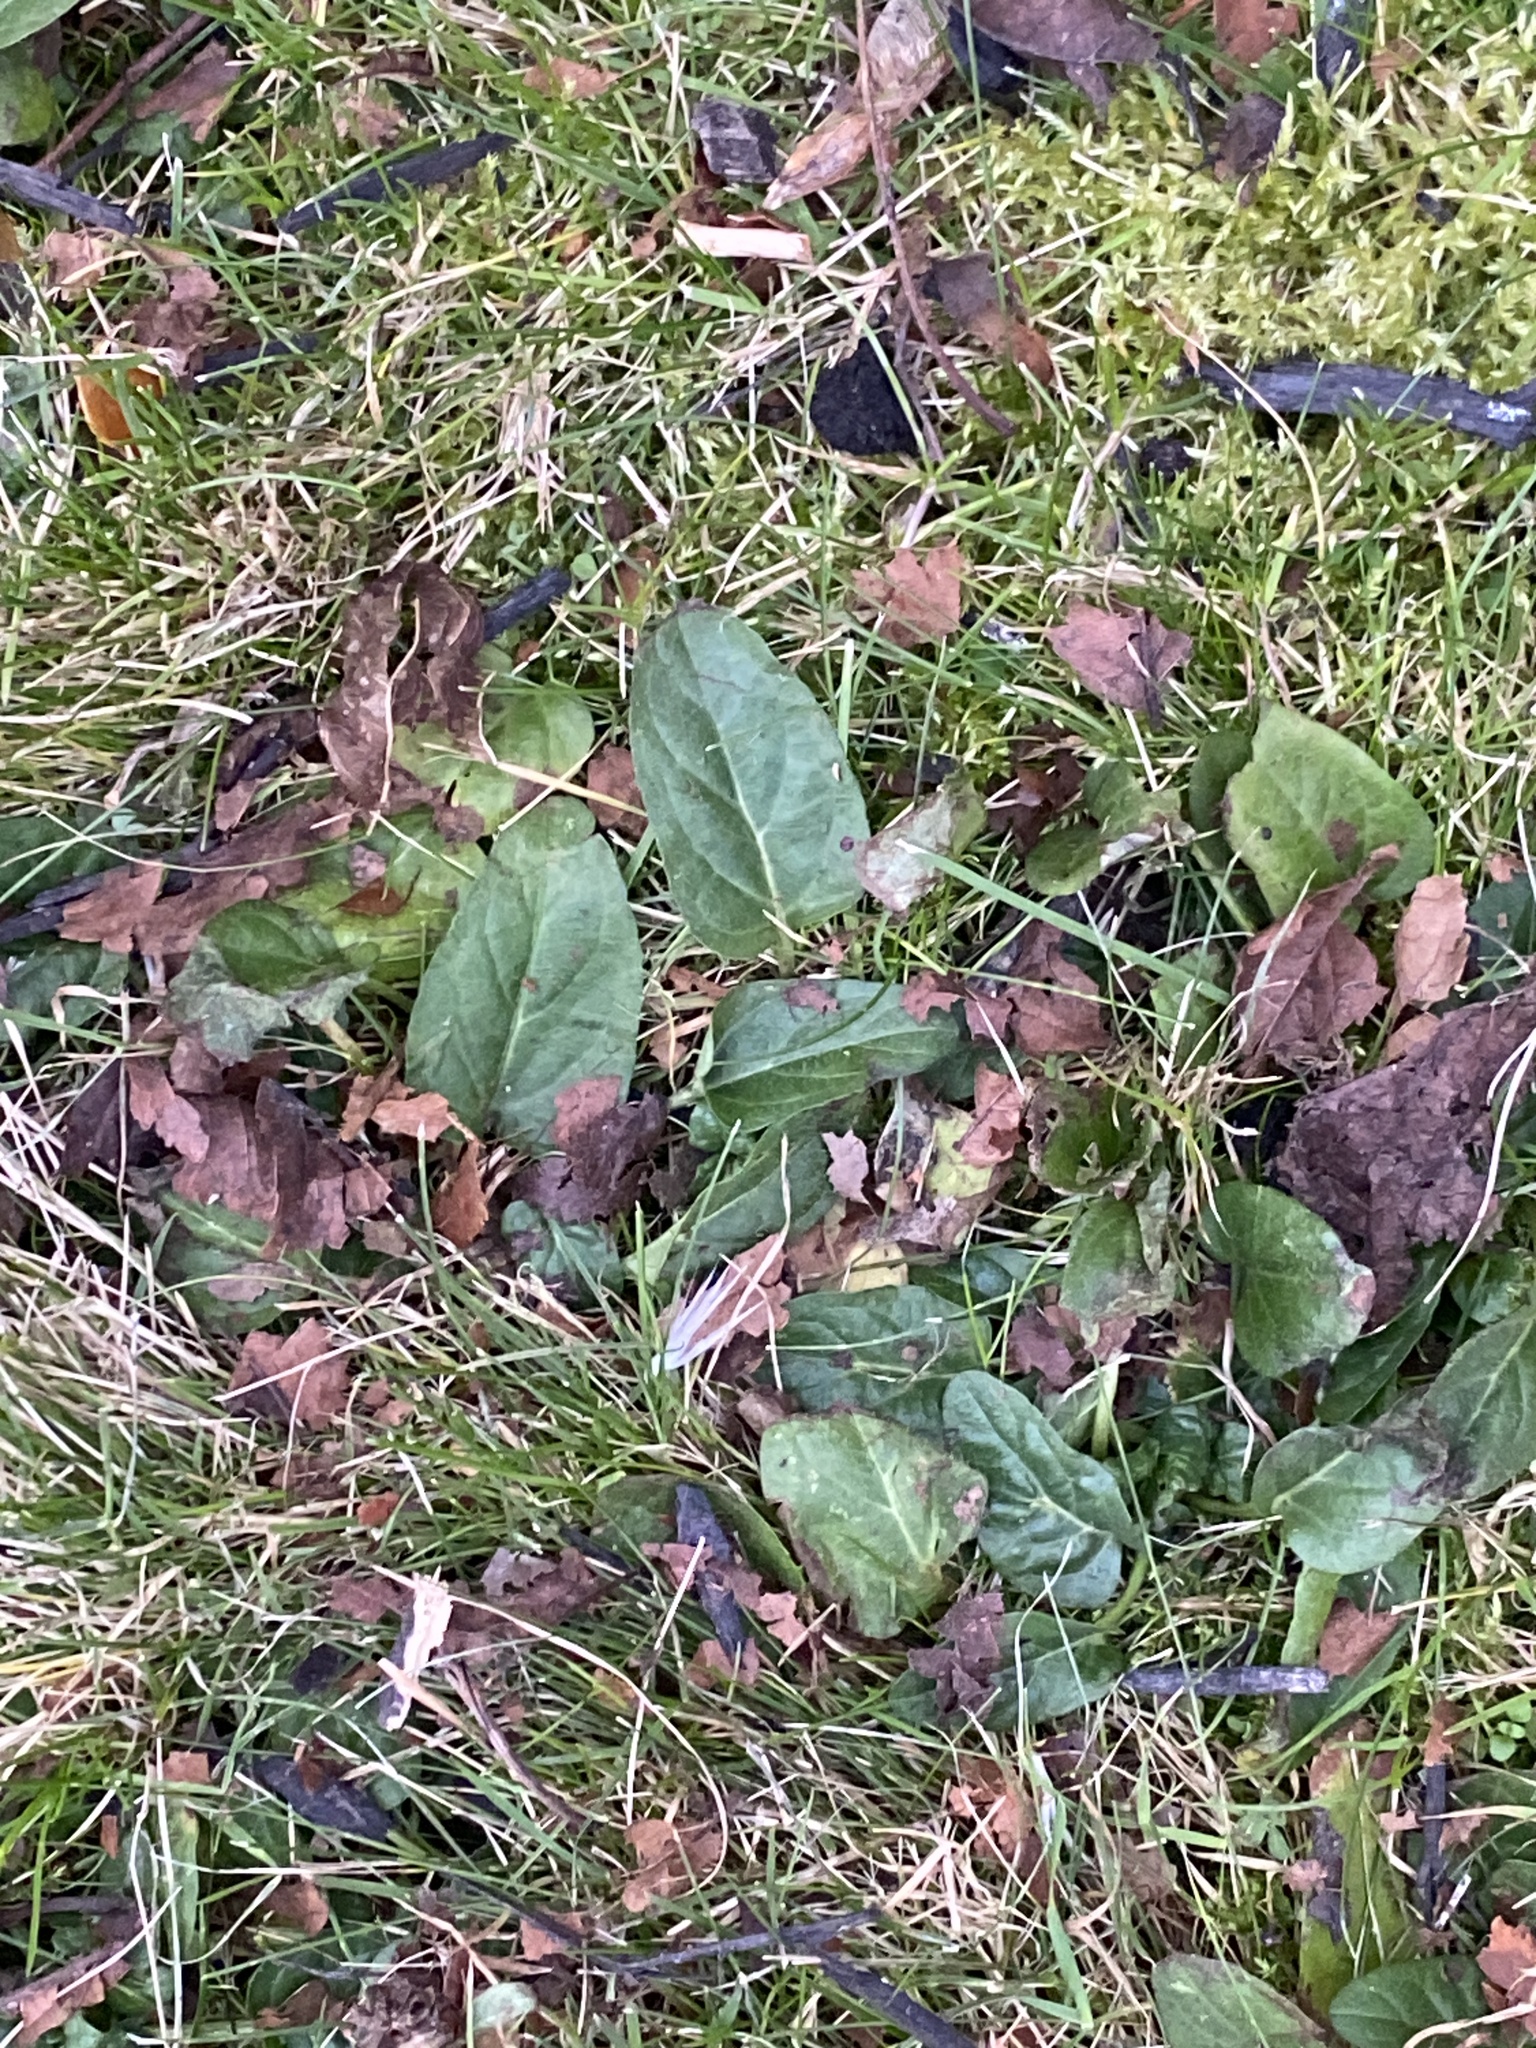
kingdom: Plantae
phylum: Tracheophyta
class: Magnoliopsida
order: Lamiales
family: Lamiaceae
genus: Prunella
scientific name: Prunella vulgaris
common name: Heal-all
